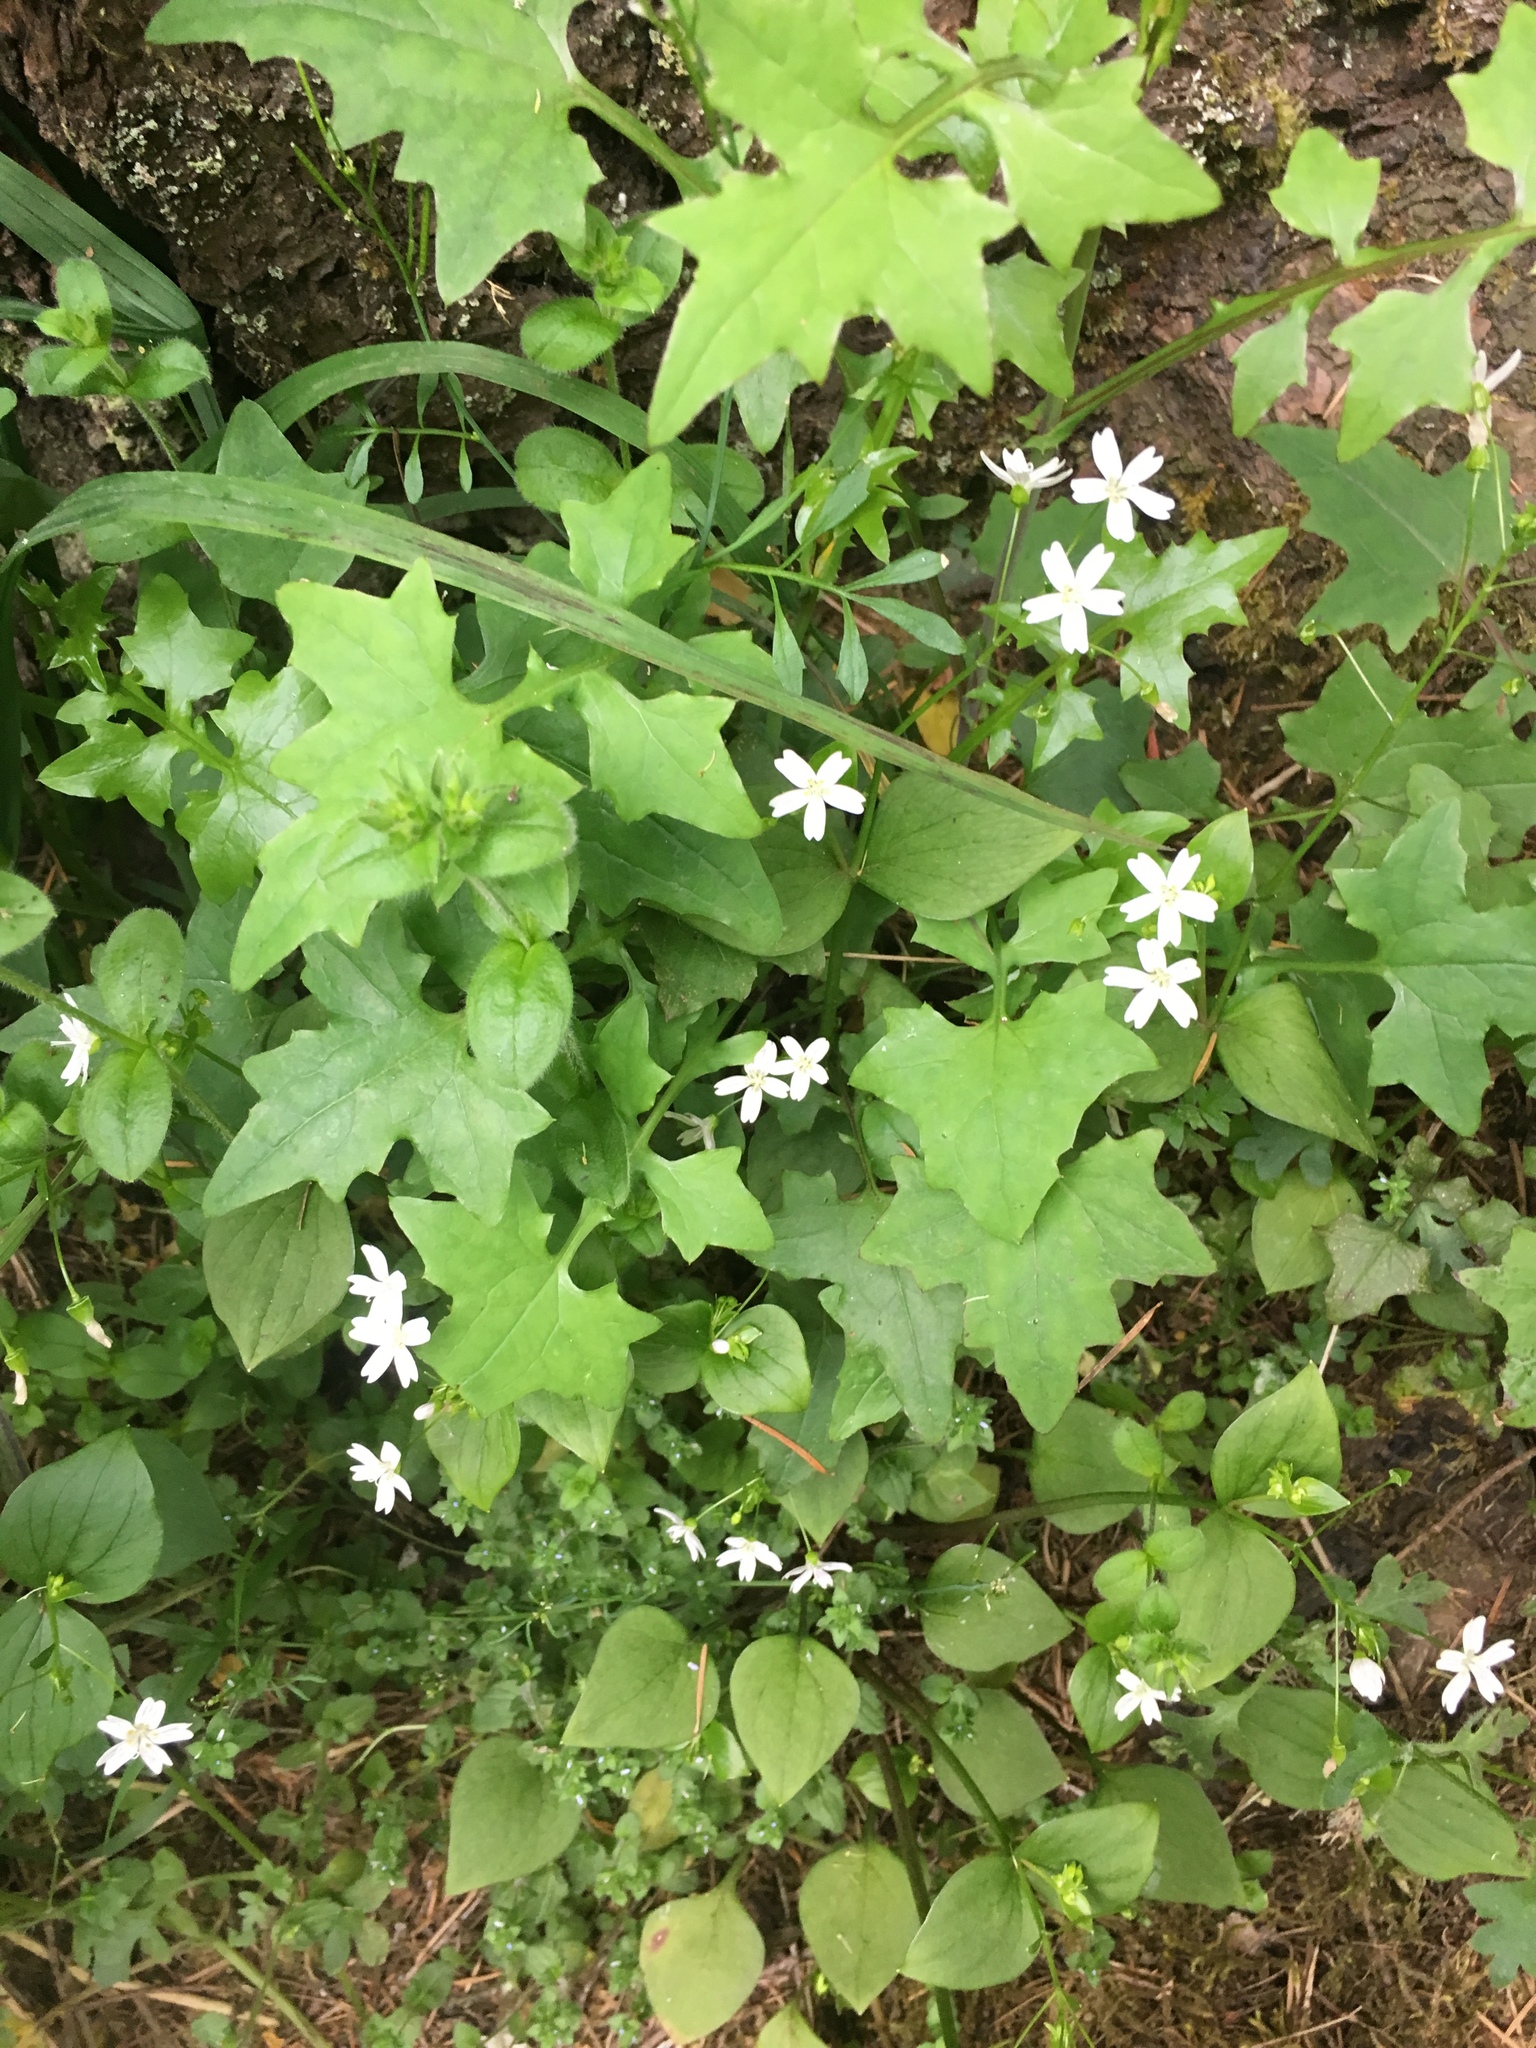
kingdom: Plantae
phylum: Tracheophyta
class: Magnoliopsida
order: Caryophyllales
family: Montiaceae
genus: Claytonia
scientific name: Claytonia sibirica
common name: Pink purslane
